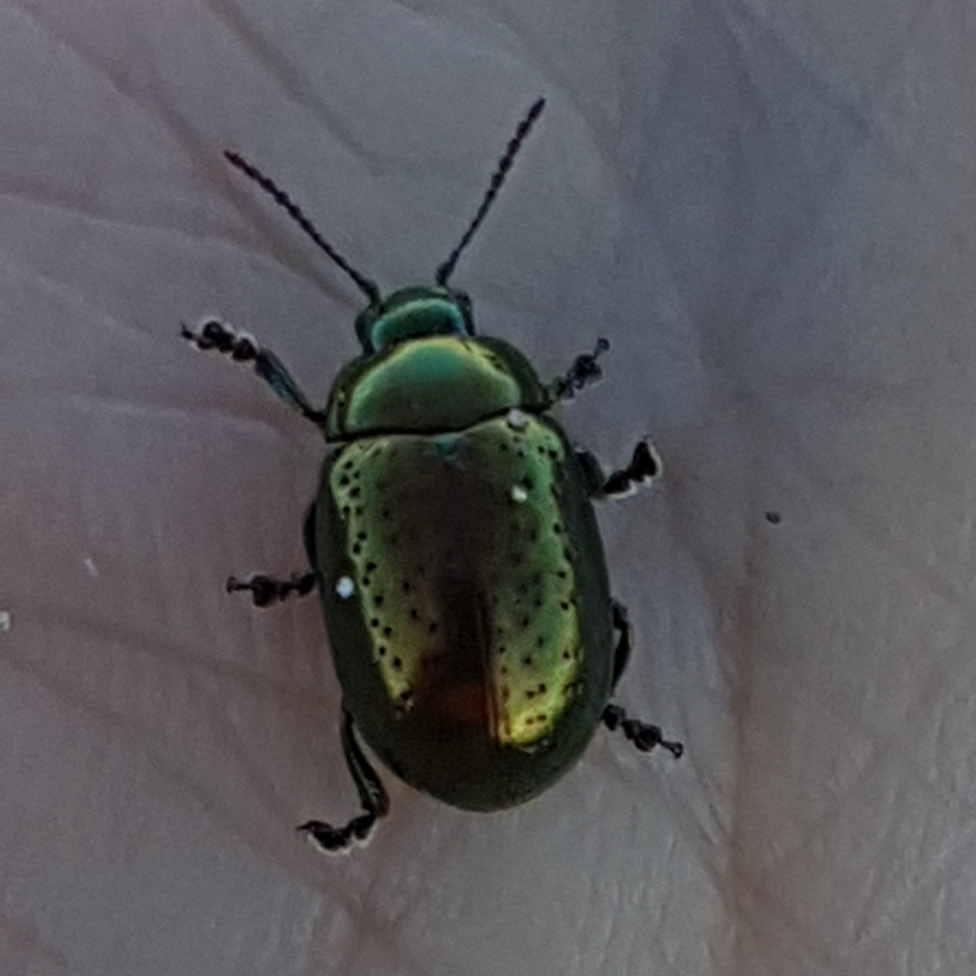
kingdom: Animalia
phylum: Arthropoda
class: Insecta
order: Coleoptera
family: Chrysomelidae
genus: Chrysolina
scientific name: Chrysolina hyperici
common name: St. johnswort beetle
